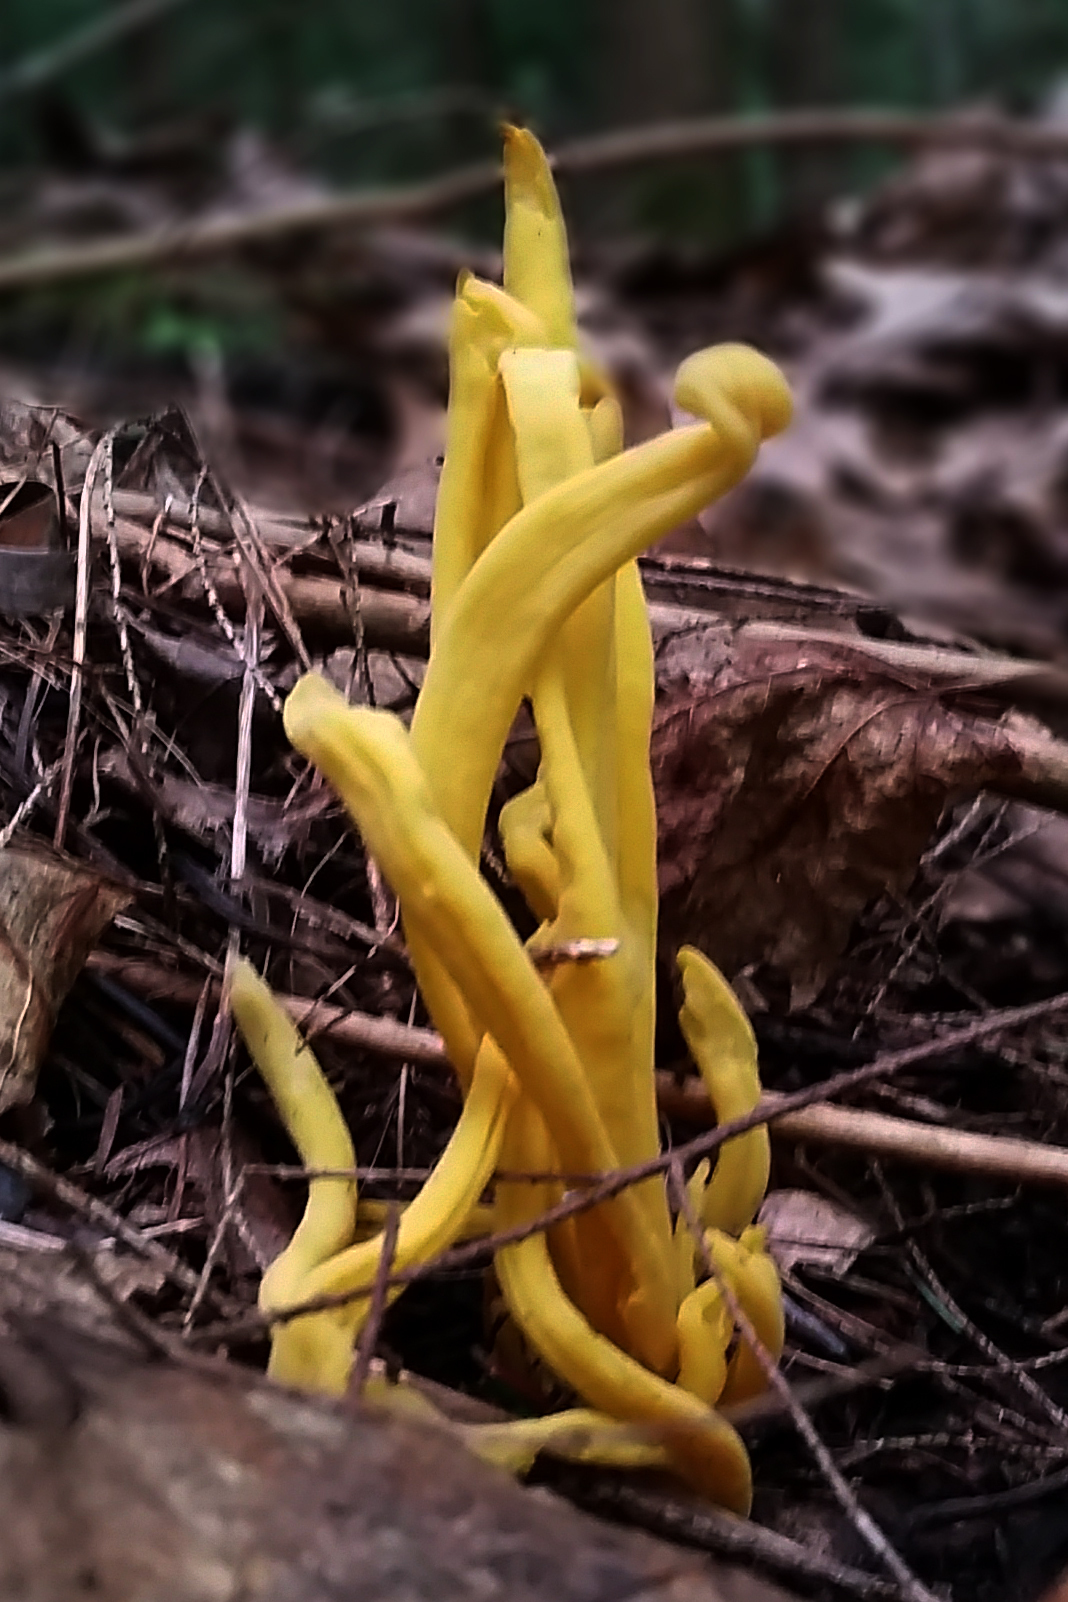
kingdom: Fungi
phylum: Basidiomycota
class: Agaricomycetes
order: Agaricales
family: Clavariaceae
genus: Clavulinopsis
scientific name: Clavulinopsis fusiformis
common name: Golden spindles
